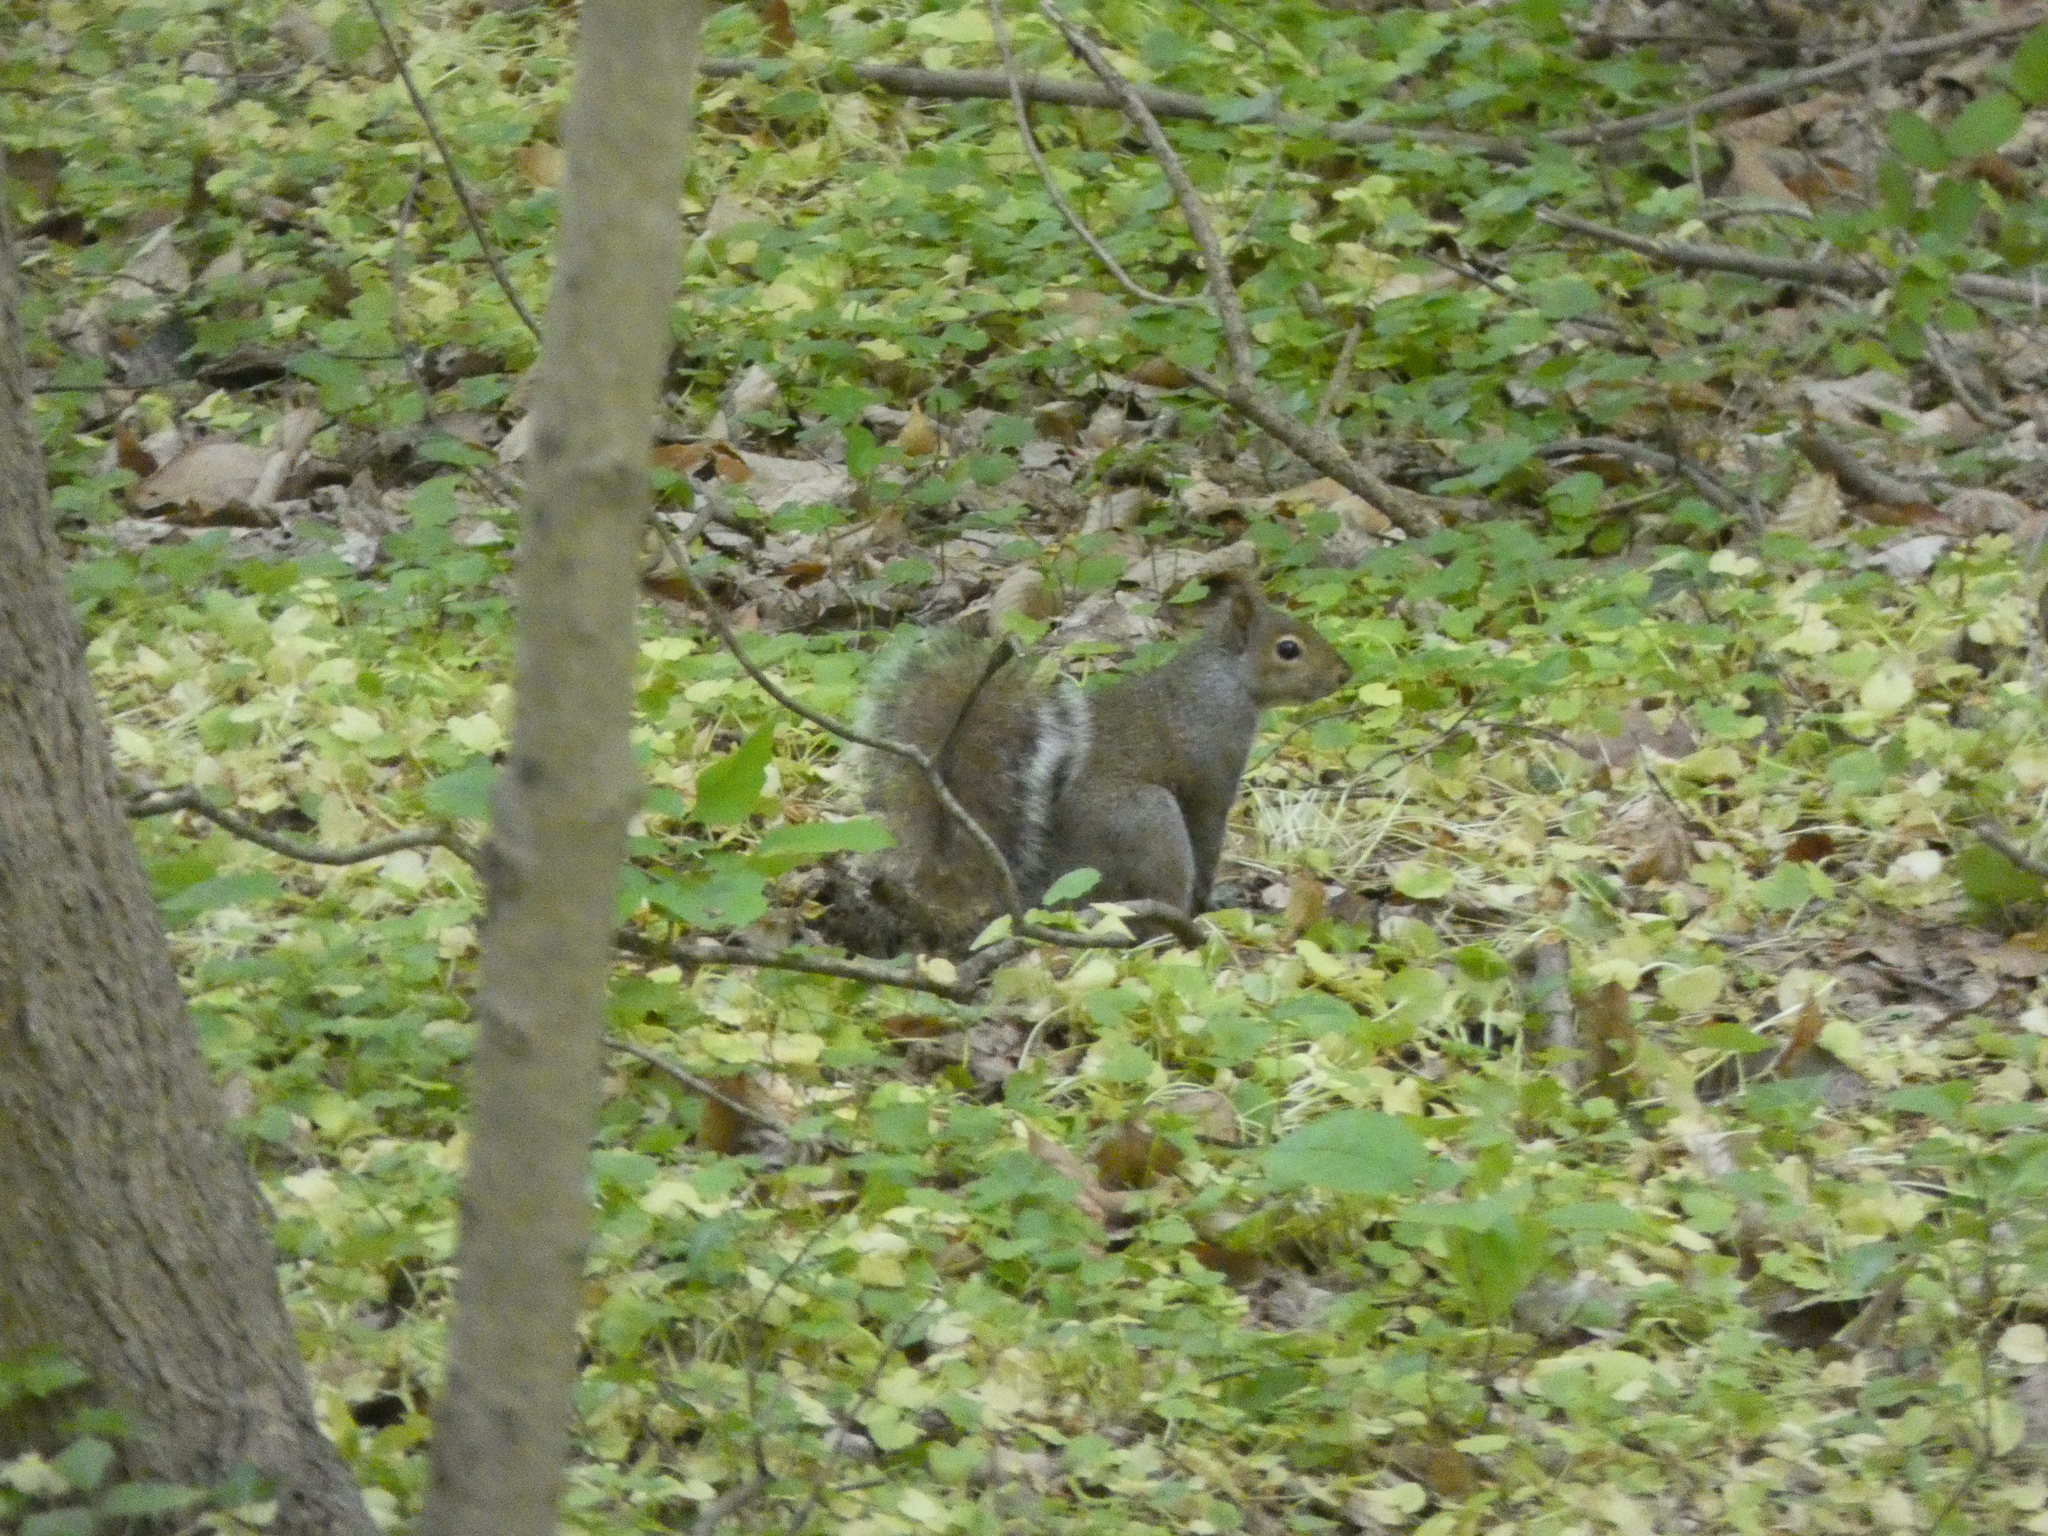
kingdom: Animalia
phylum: Chordata
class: Mammalia
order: Rodentia
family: Sciuridae
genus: Sciurus
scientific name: Sciurus carolinensis
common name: Eastern gray squirrel
